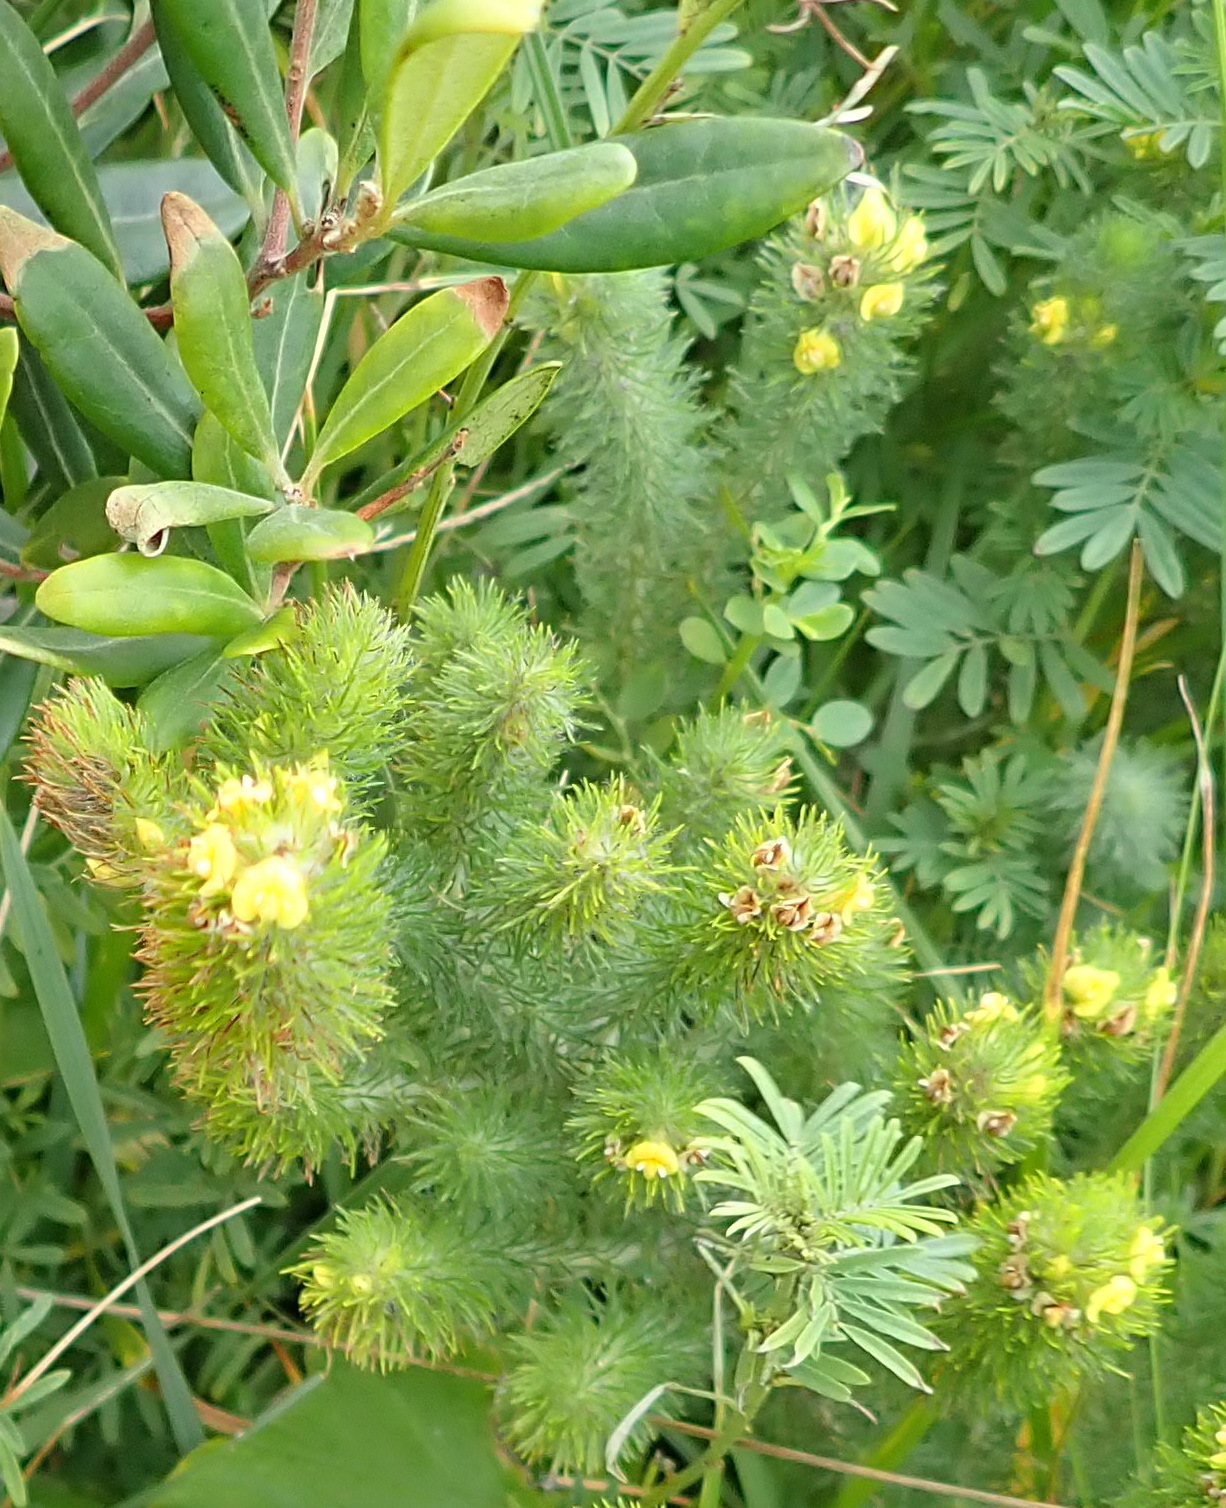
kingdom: Plantae
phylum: Tracheophyta
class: Magnoliopsida
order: Fabales
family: Fabaceae
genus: Aspalathus
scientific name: Aspalathus alopecurus
